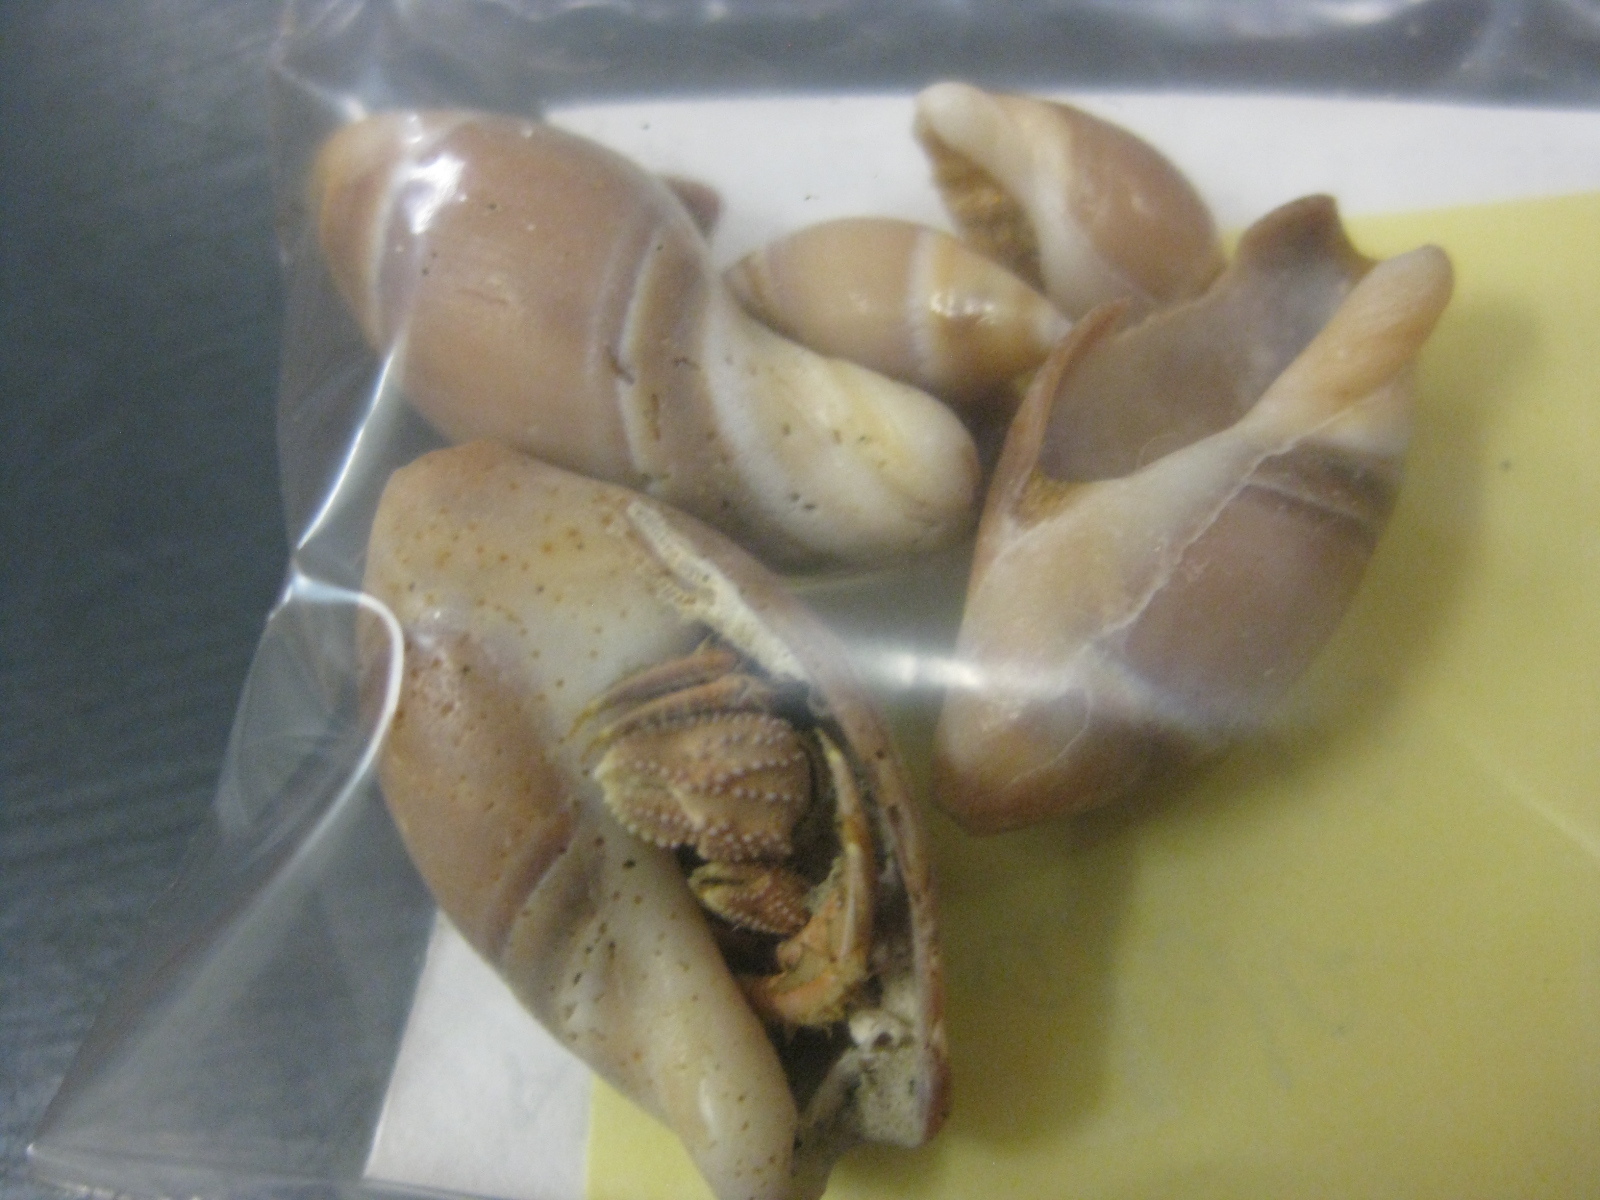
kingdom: Animalia
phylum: Mollusca
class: Gastropoda
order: Neogastropoda
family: Ancillariidae
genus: Amalda
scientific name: Amalda australis
